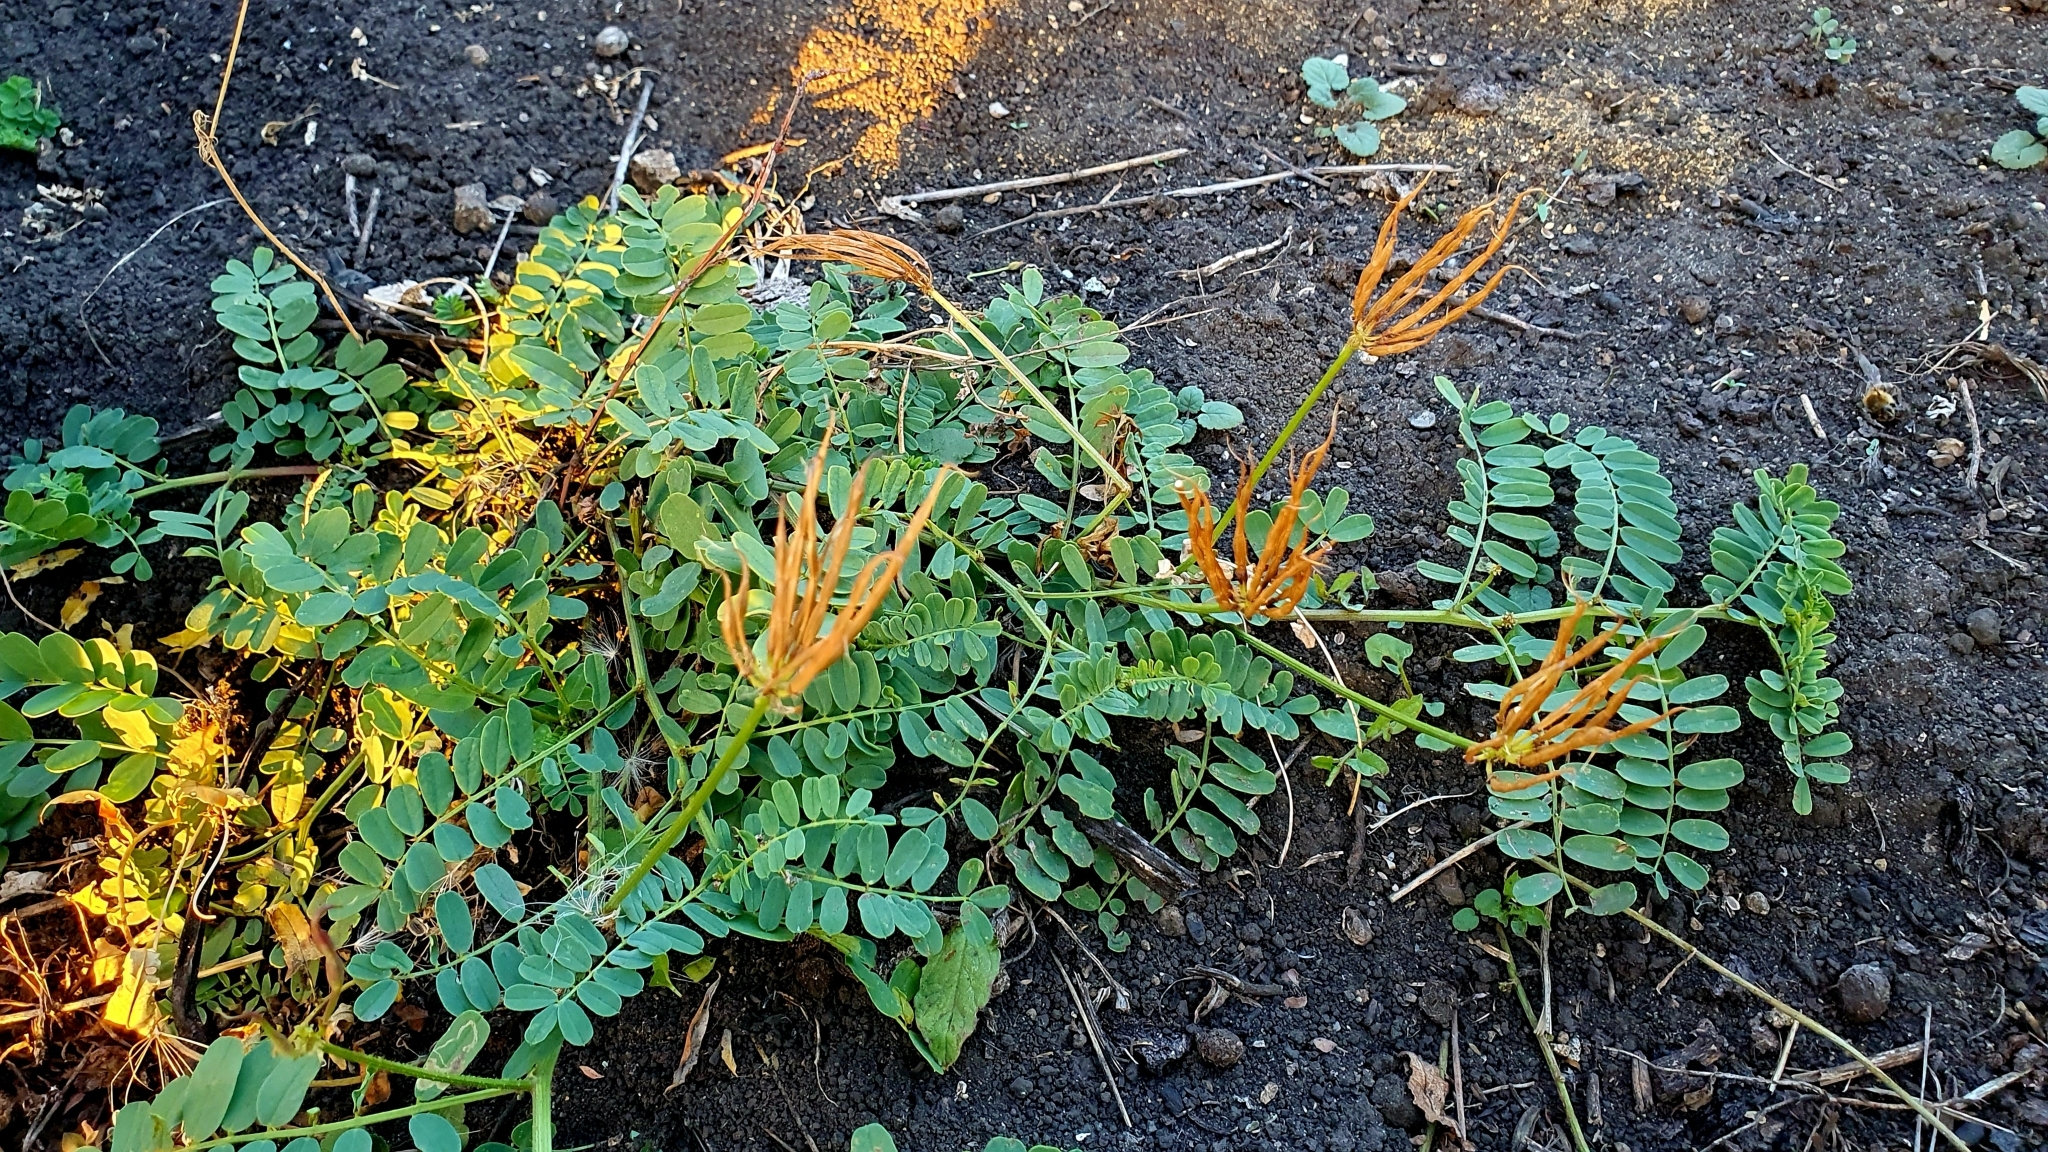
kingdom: Plantae
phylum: Tracheophyta
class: Magnoliopsida
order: Fabales
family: Fabaceae
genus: Coronilla
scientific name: Coronilla varia
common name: Crownvetch
